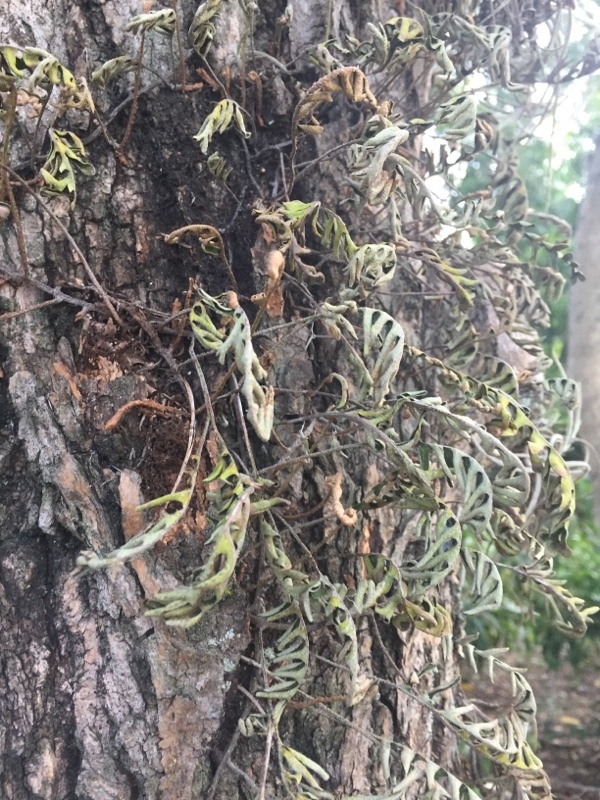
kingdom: Plantae
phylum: Tracheophyta
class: Polypodiopsida
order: Polypodiales
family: Polypodiaceae
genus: Pleopeltis
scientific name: Pleopeltis polypodioides
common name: Resurrection fern
